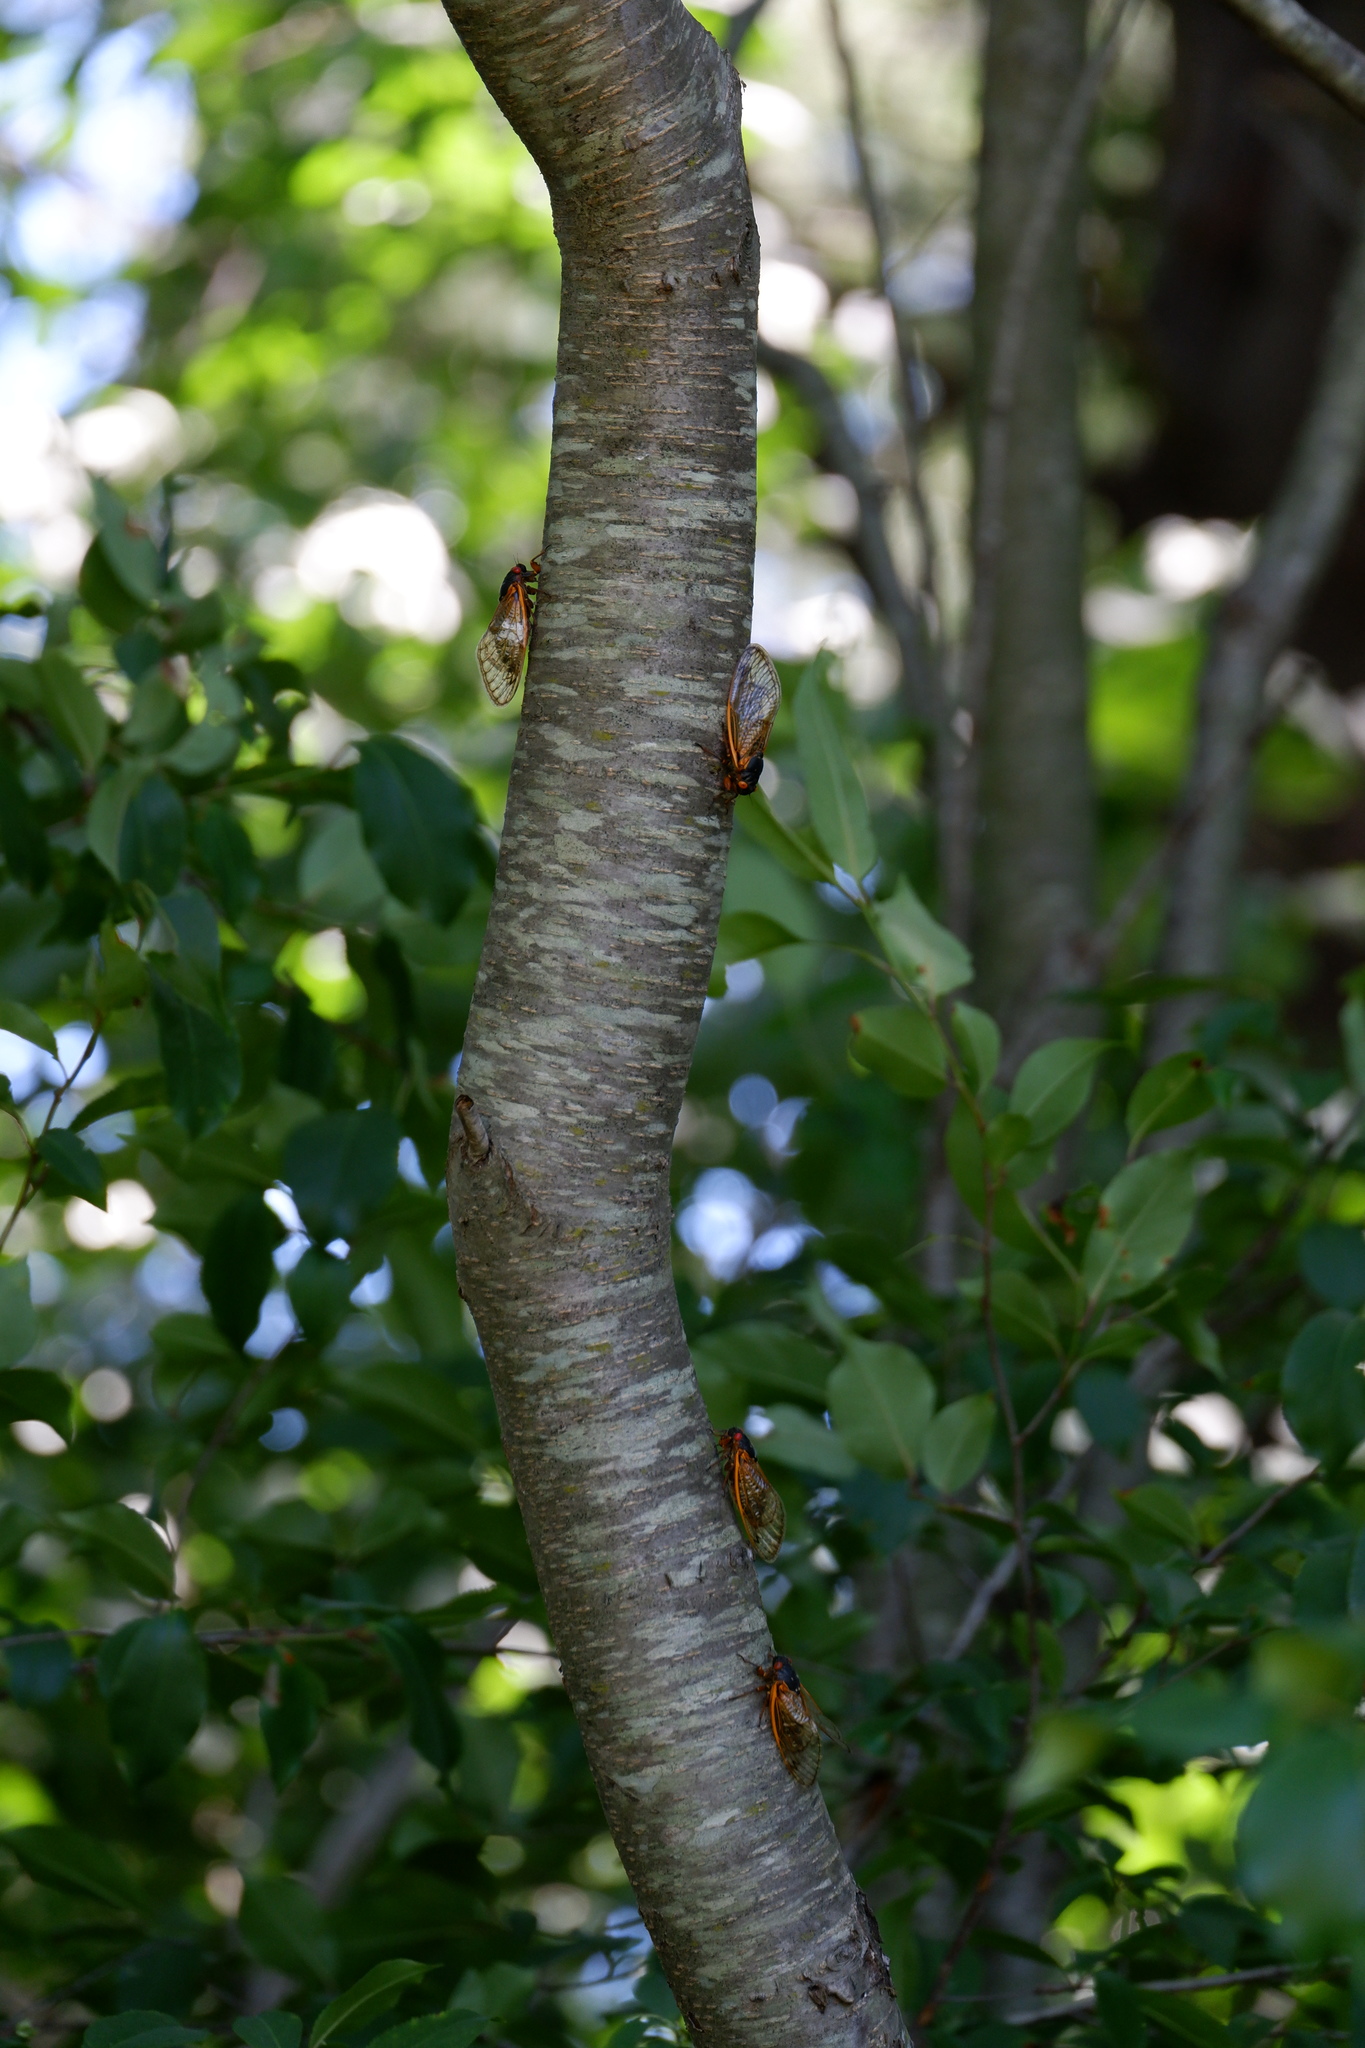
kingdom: Animalia
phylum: Arthropoda
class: Insecta
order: Hemiptera
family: Cicadidae
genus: Magicicada
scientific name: Magicicada septendecim
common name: Periodical cicada
